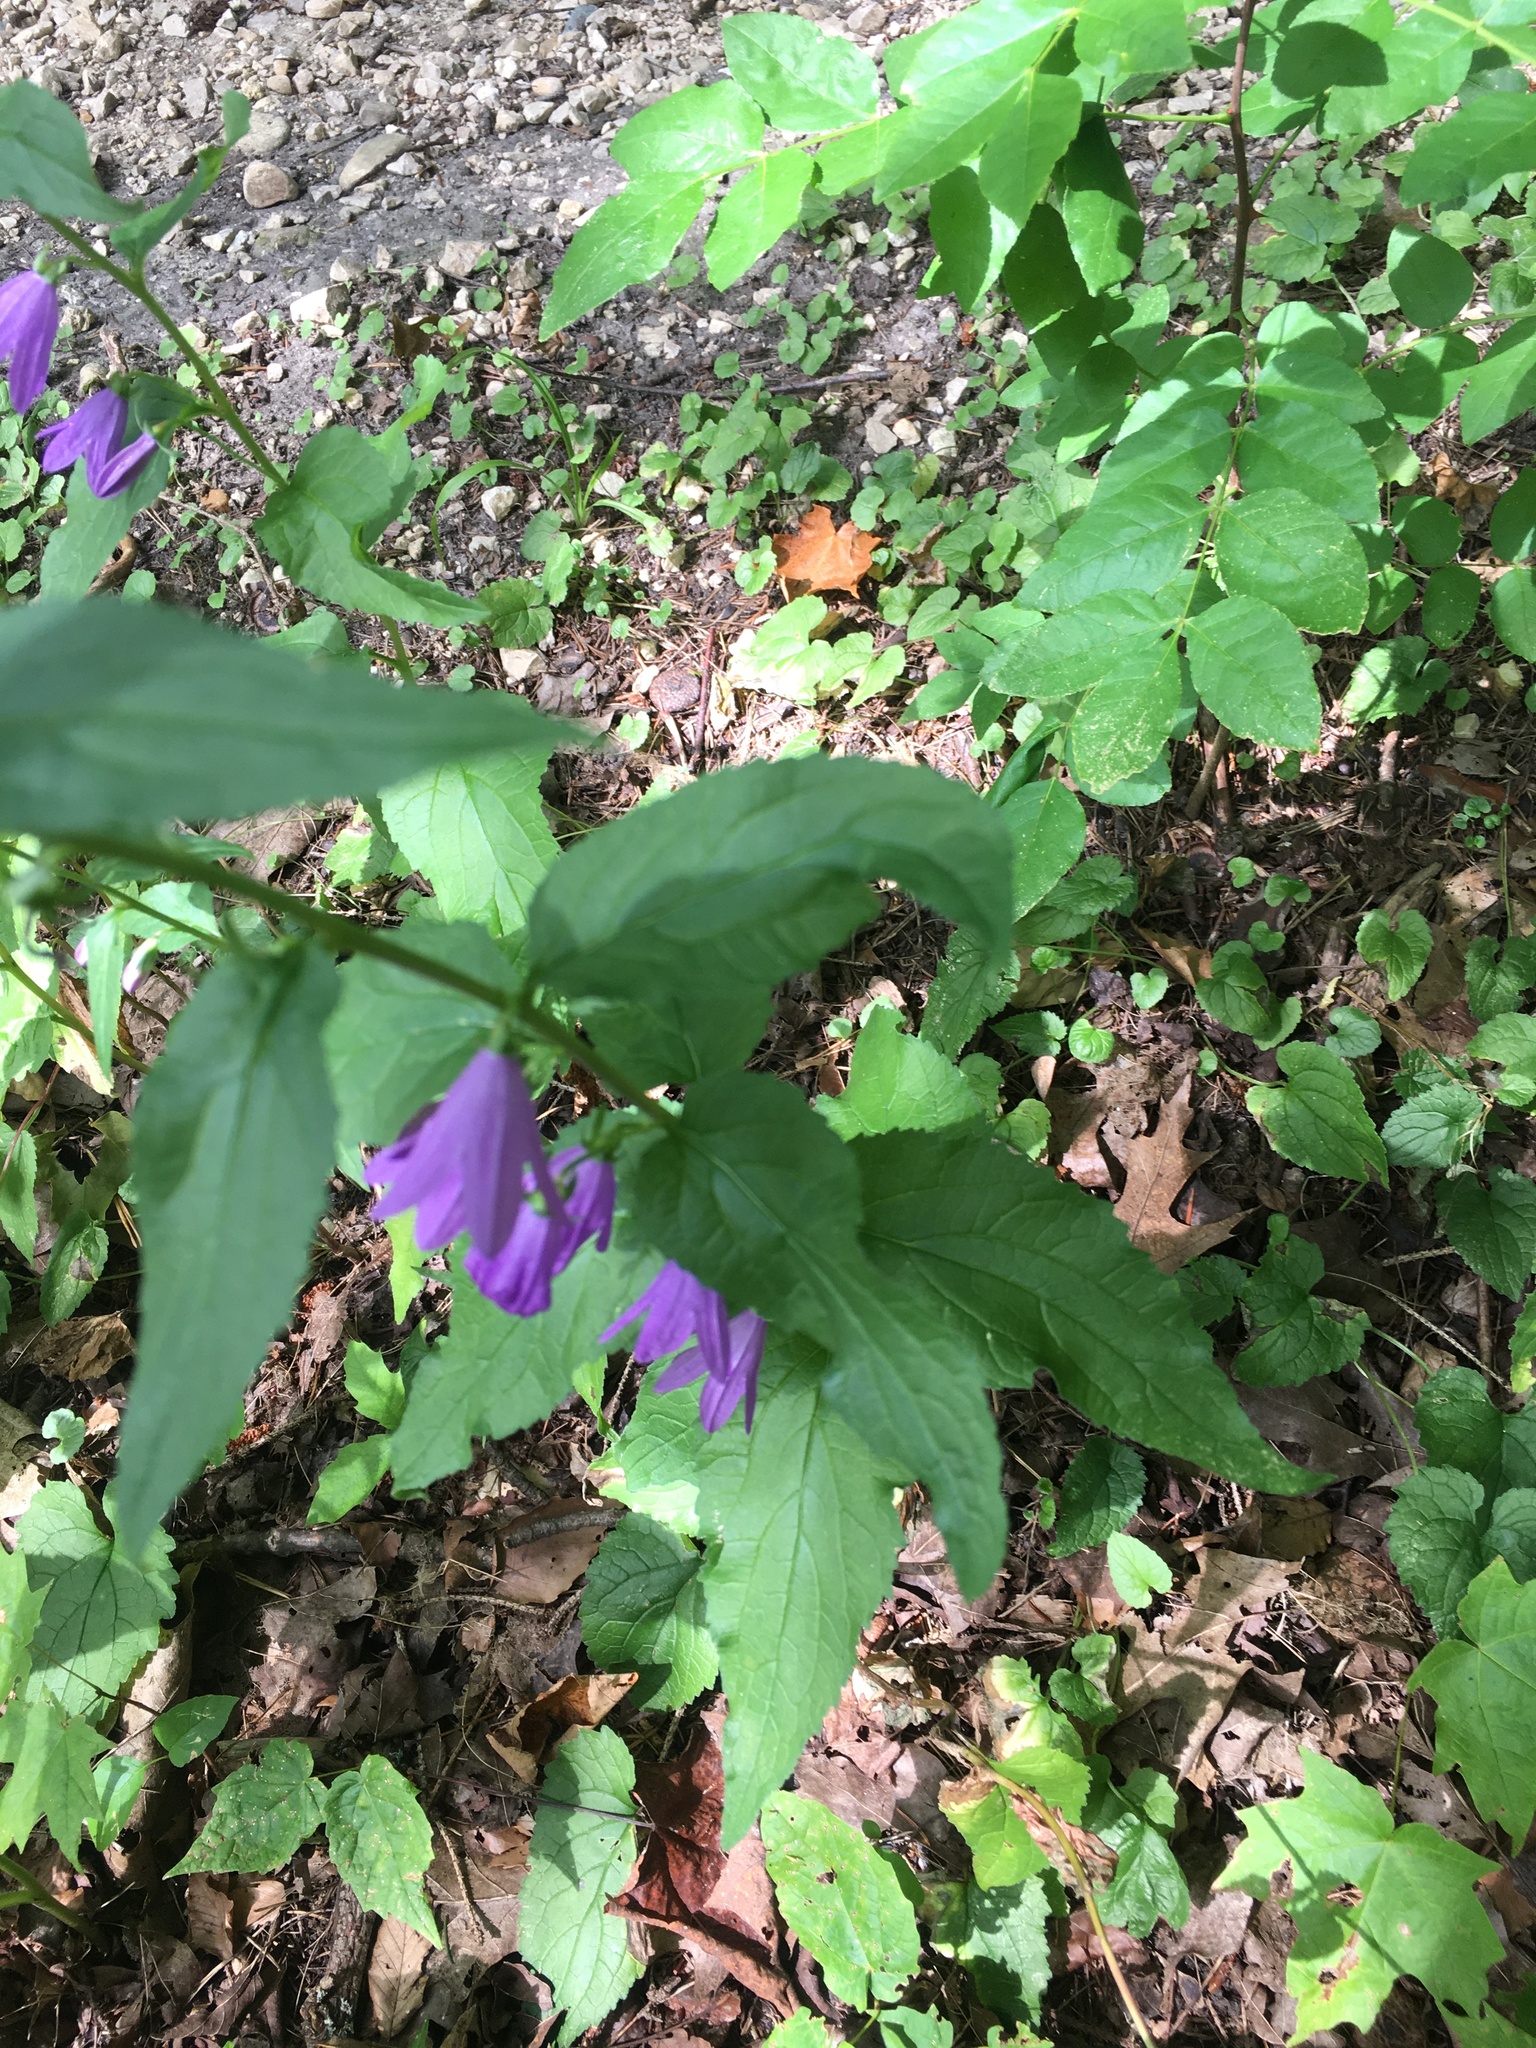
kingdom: Plantae
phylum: Tracheophyta
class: Magnoliopsida
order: Asterales
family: Campanulaceae
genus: Campanula
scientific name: Campanula rapunculoides
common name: Creeping bellflower
